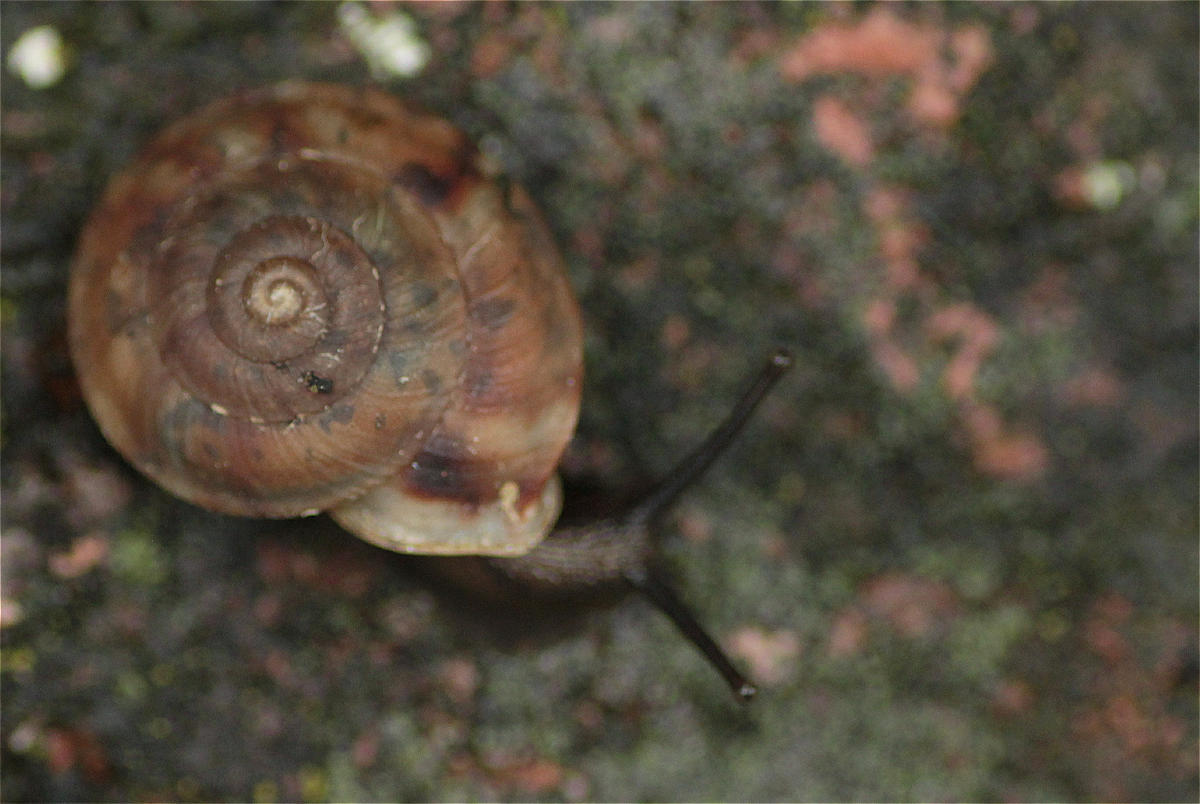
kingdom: Animalia
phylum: Mollusca
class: Gastropoda
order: Stylommatophora
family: Helicidae
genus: Helicigona
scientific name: Helicigona lapicida
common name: Lapidary snail
